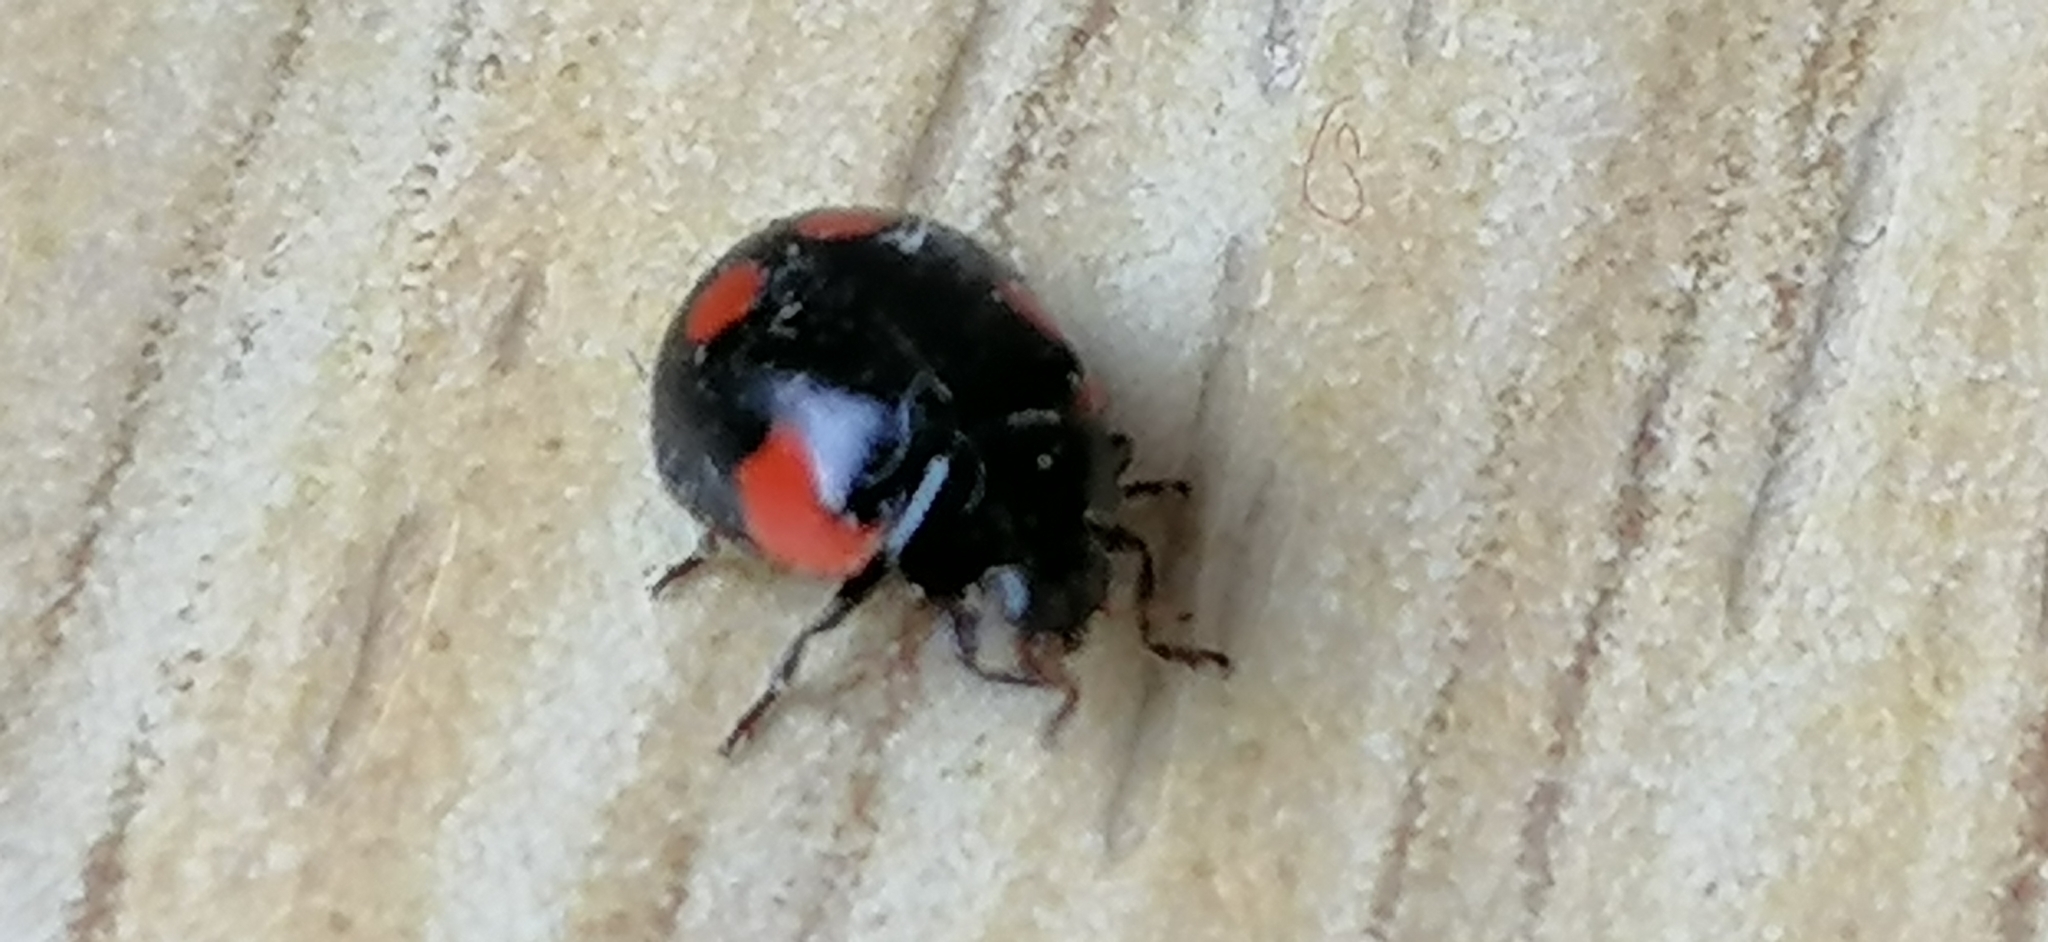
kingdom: Animalia
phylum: Arthropoda
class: Insecta
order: Coleoptera
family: Coccinellidae
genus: Adalia
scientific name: Adalia bipunctata
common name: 2-spot ladybird
